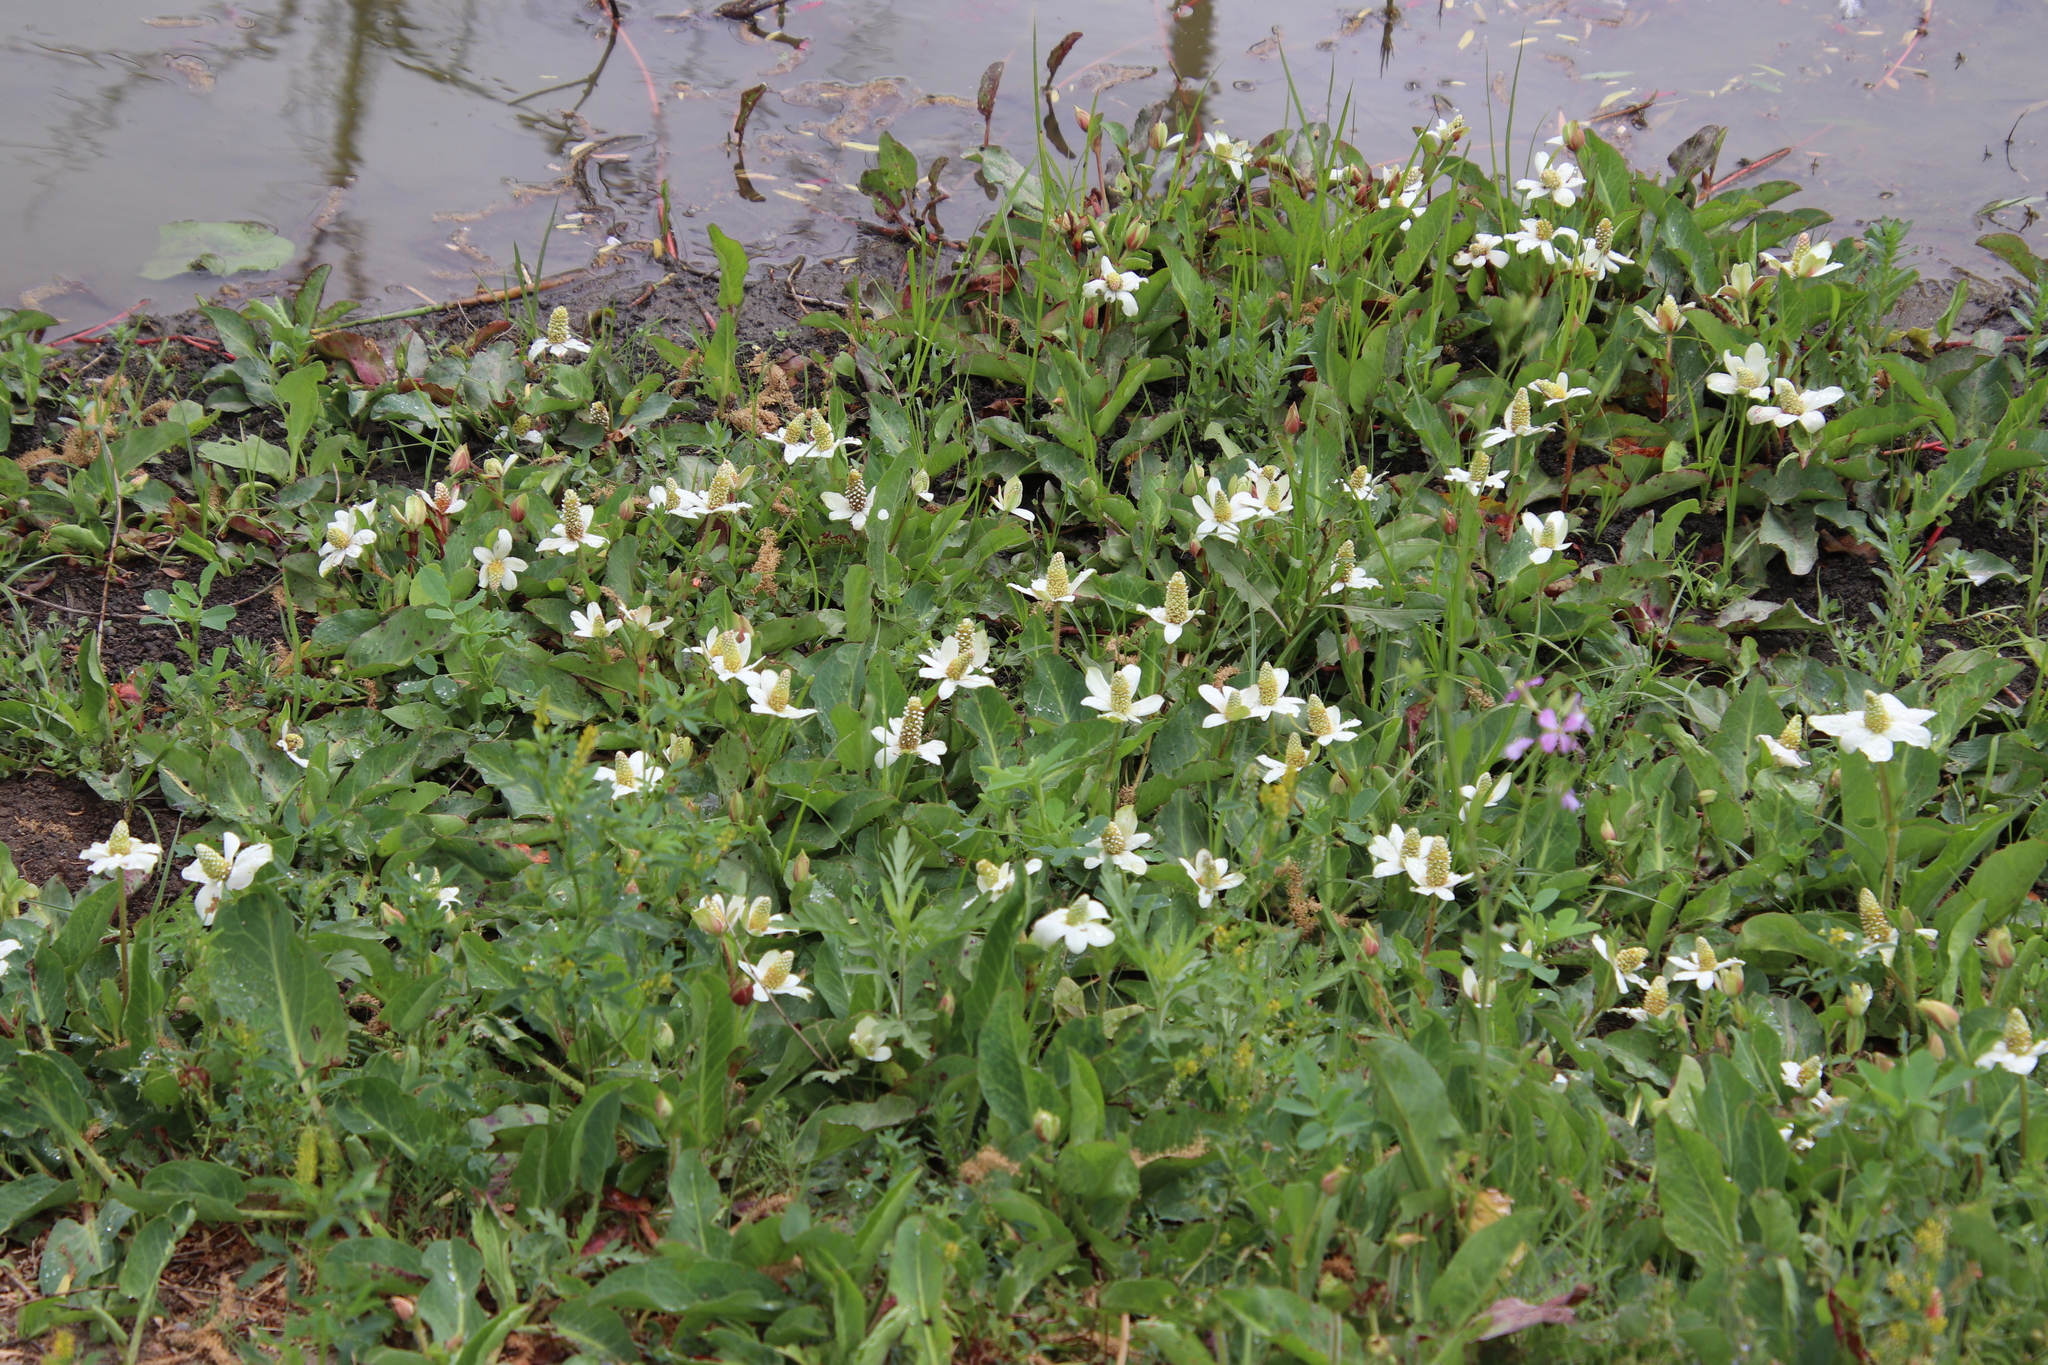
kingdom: Plantae
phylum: Tracheophyta
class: Magnoliopsida
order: Piperales
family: Saururaceae
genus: Anemopsis
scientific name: Anemopsis californica
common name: Apache-beads
